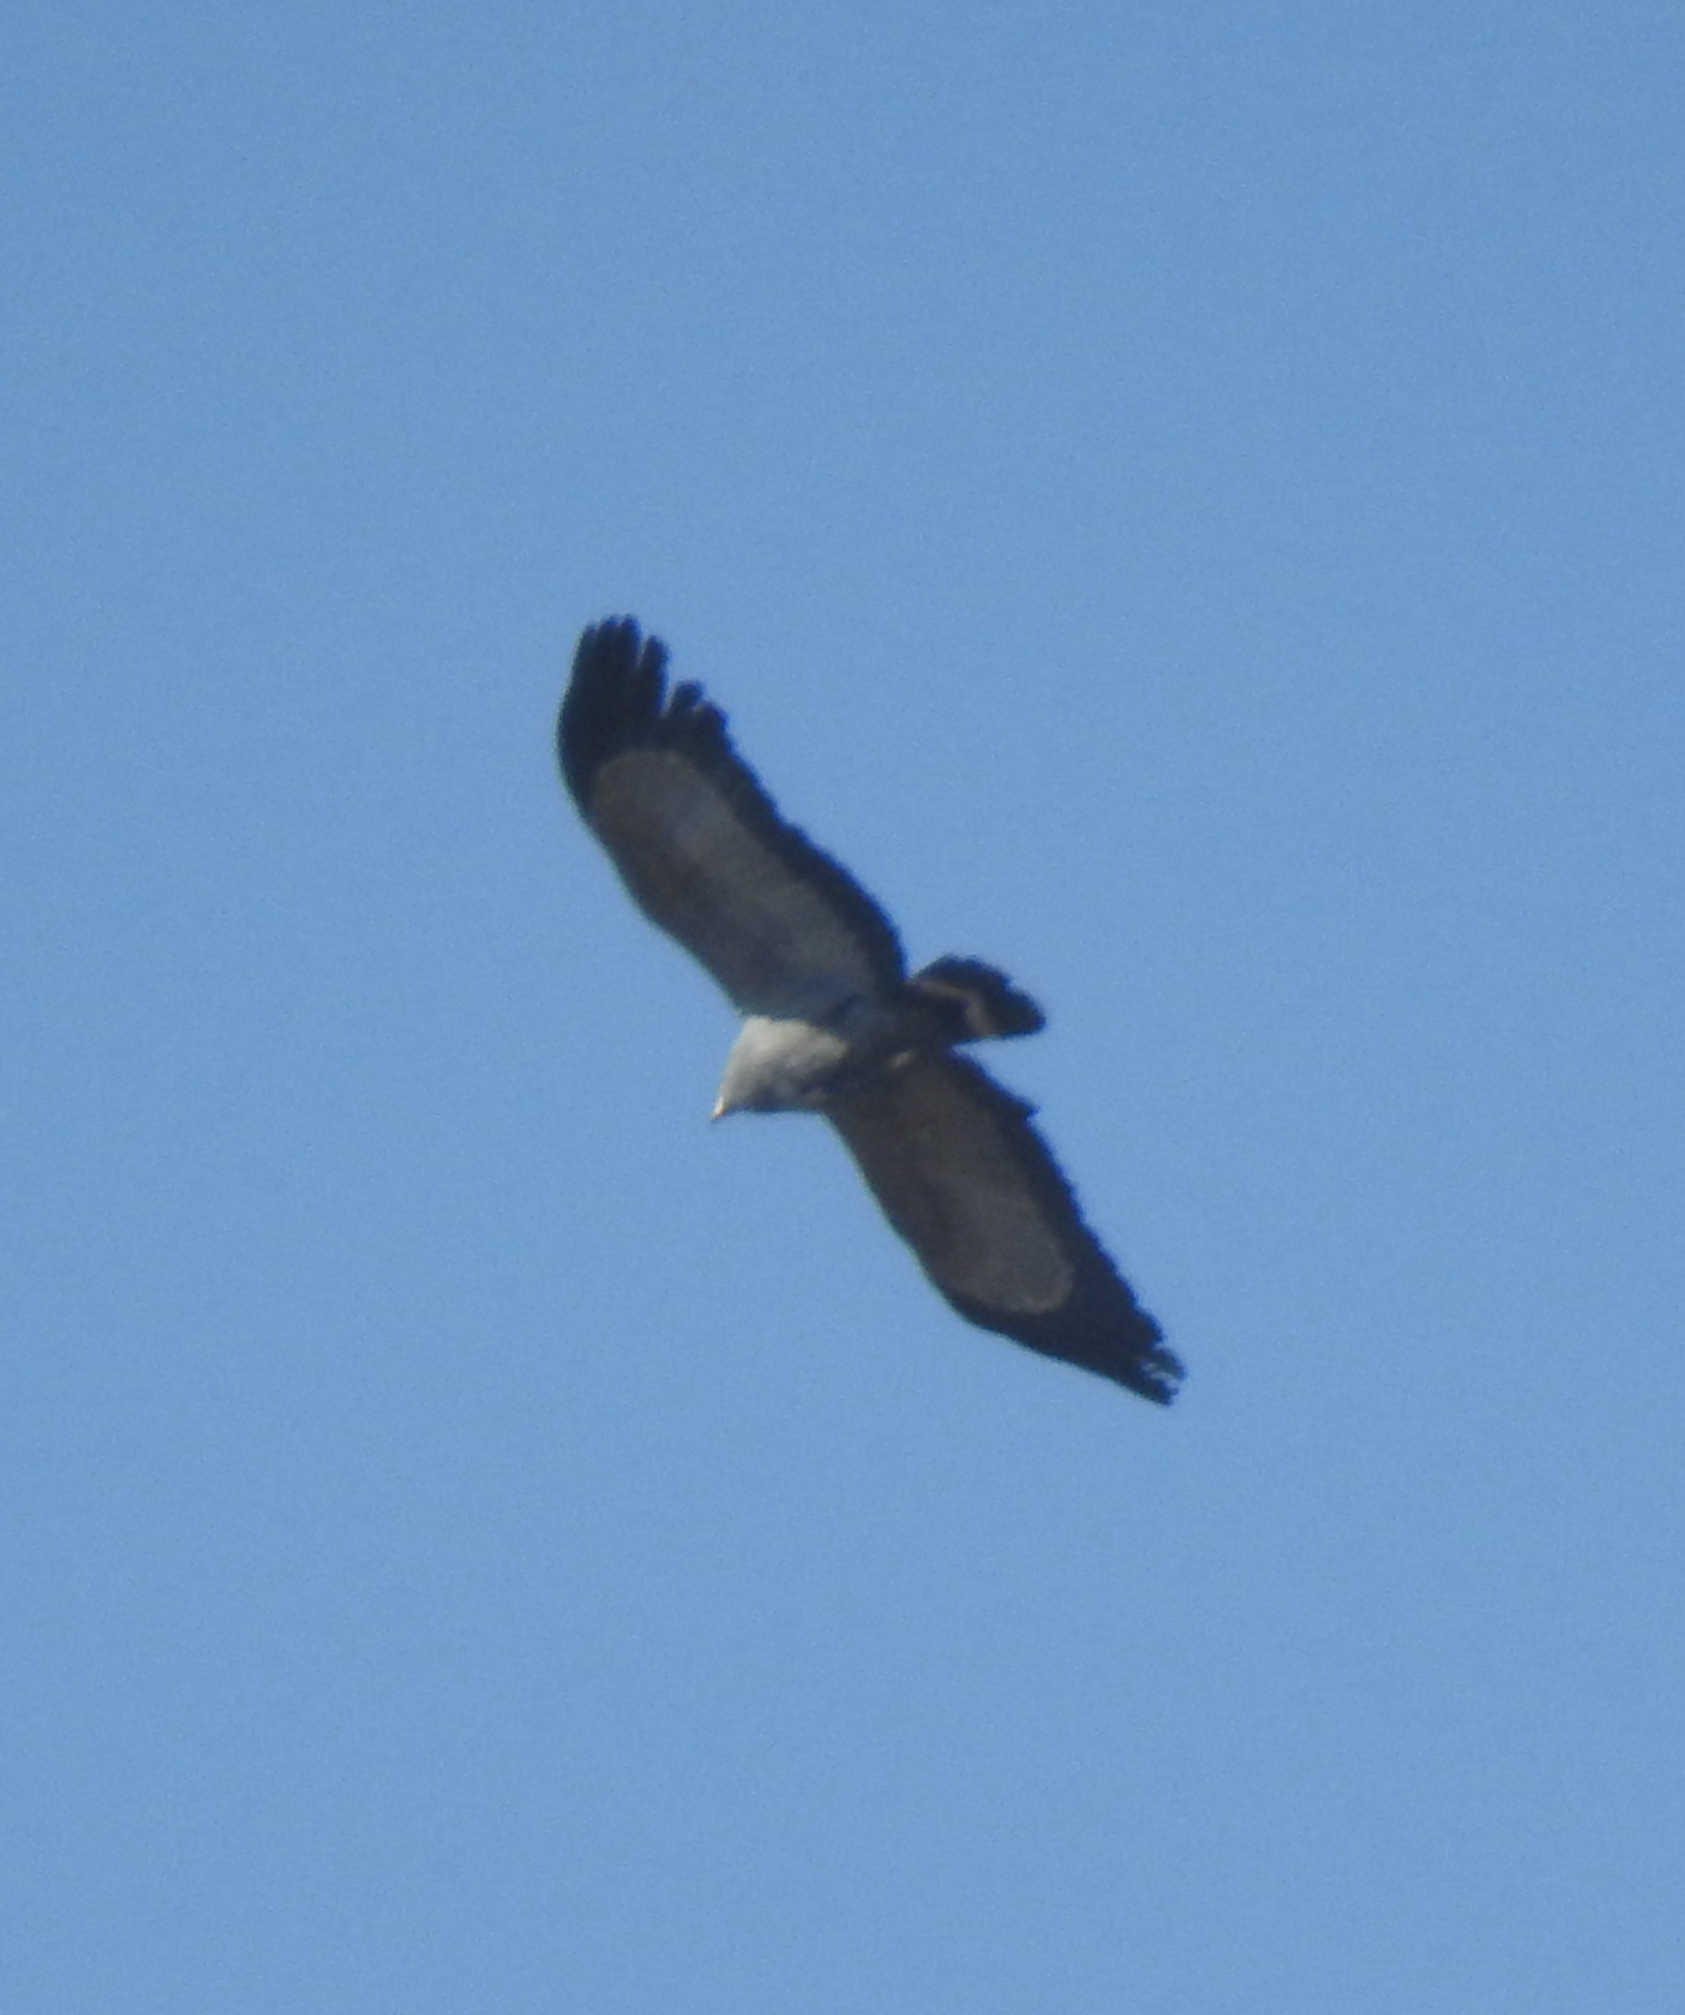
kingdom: Animalia
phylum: Chordata
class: Aves
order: Accipitriformes
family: Accipitridae
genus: Polyboroides
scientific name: Polyboroides typus
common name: African harrier-hawk
